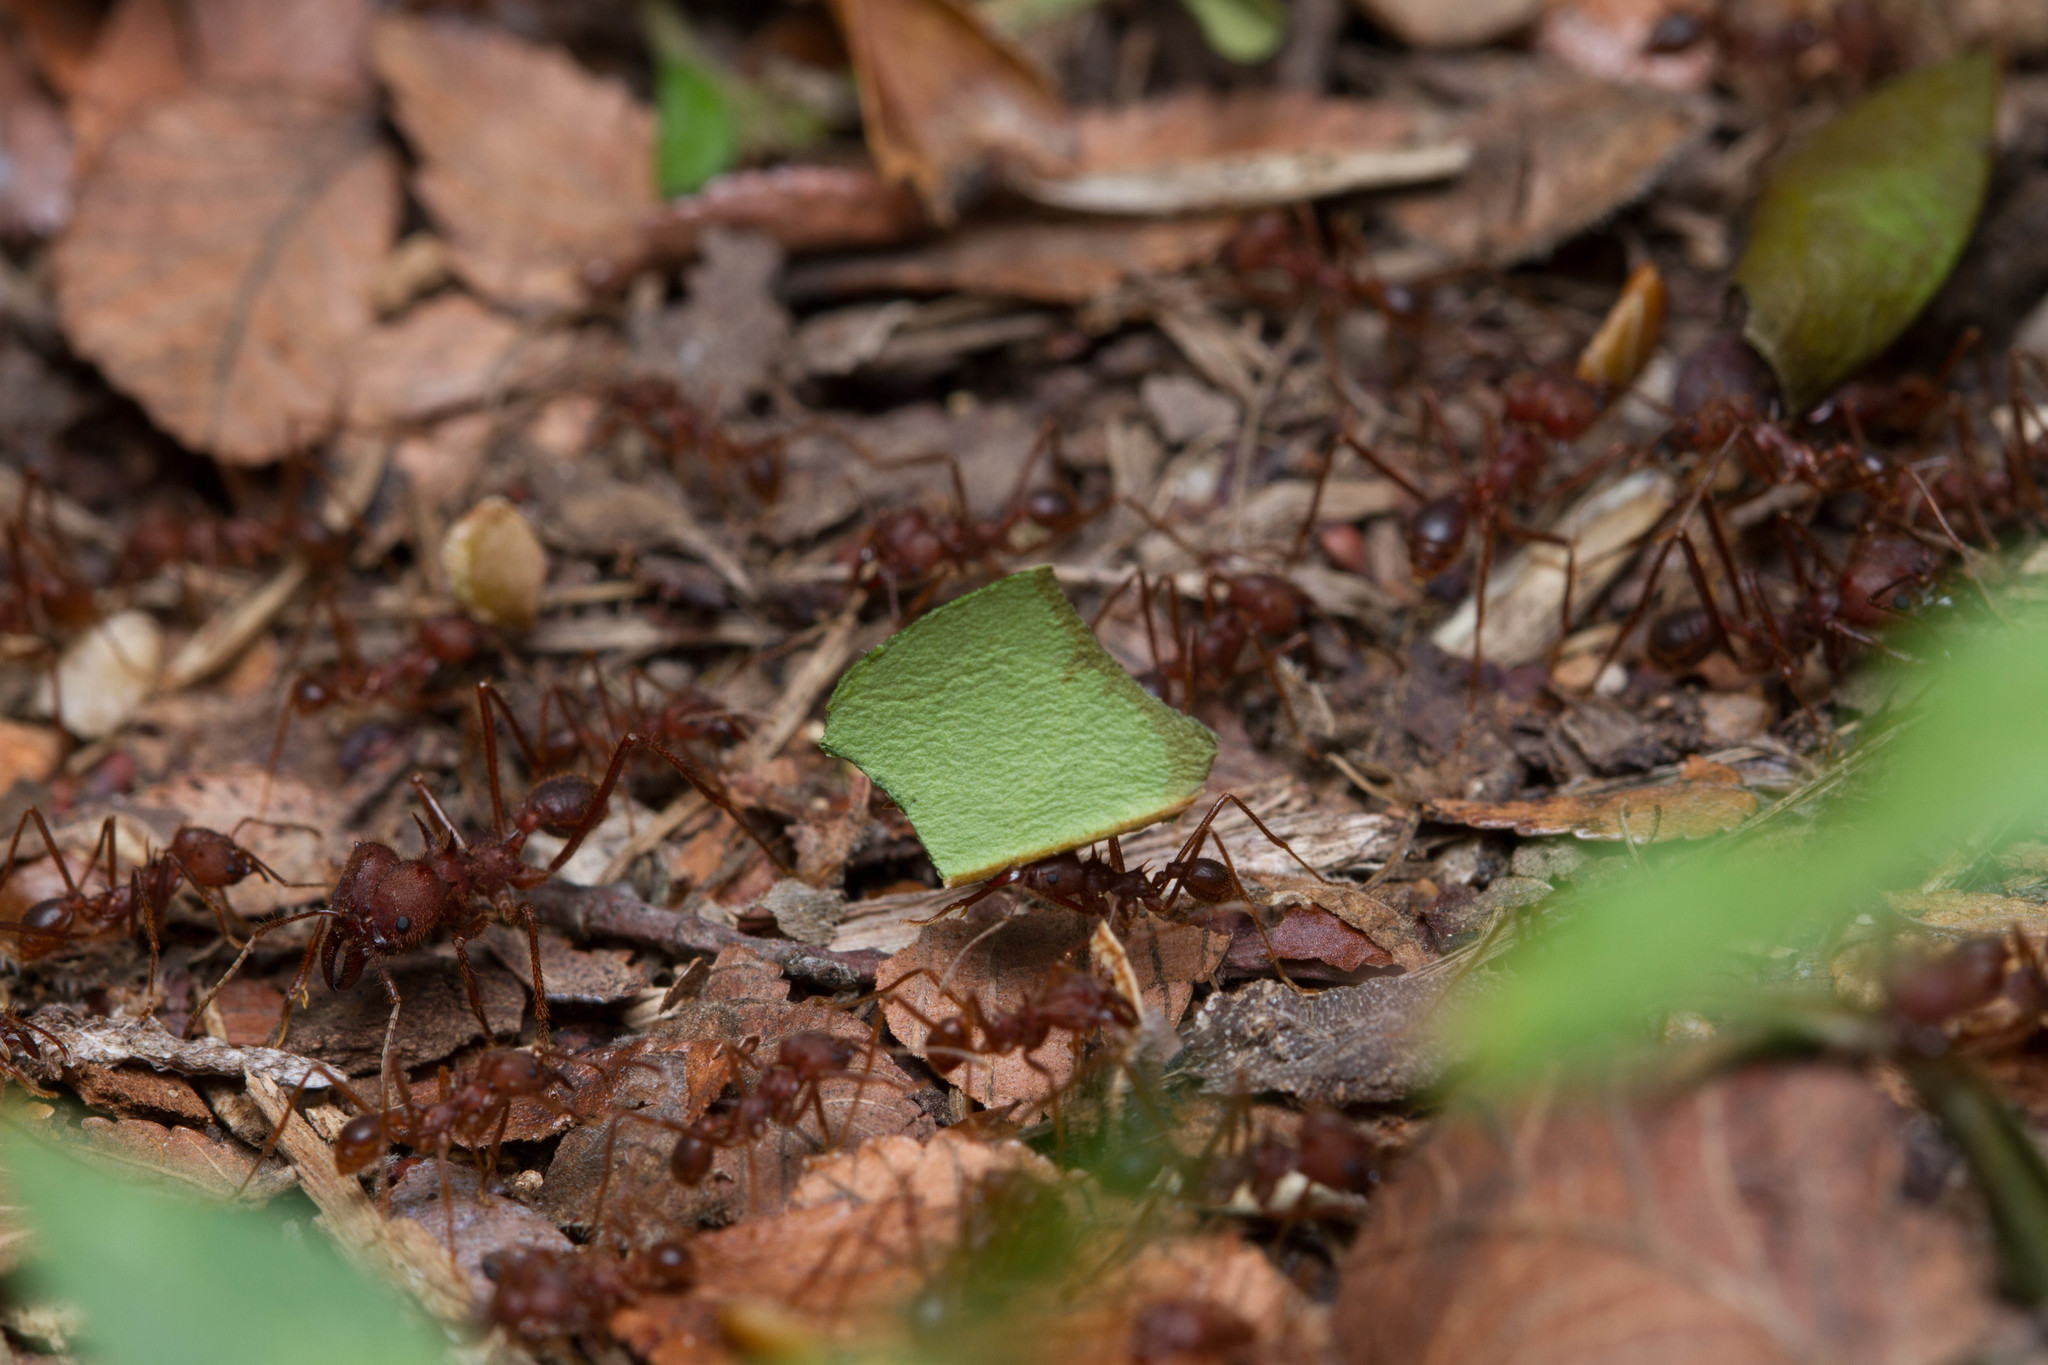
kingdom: Animalia
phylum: Arthropoda
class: Insecta
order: Hymenoptera
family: Formicidae
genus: Atta
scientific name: Atta texana
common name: Texas leafcutting ant
